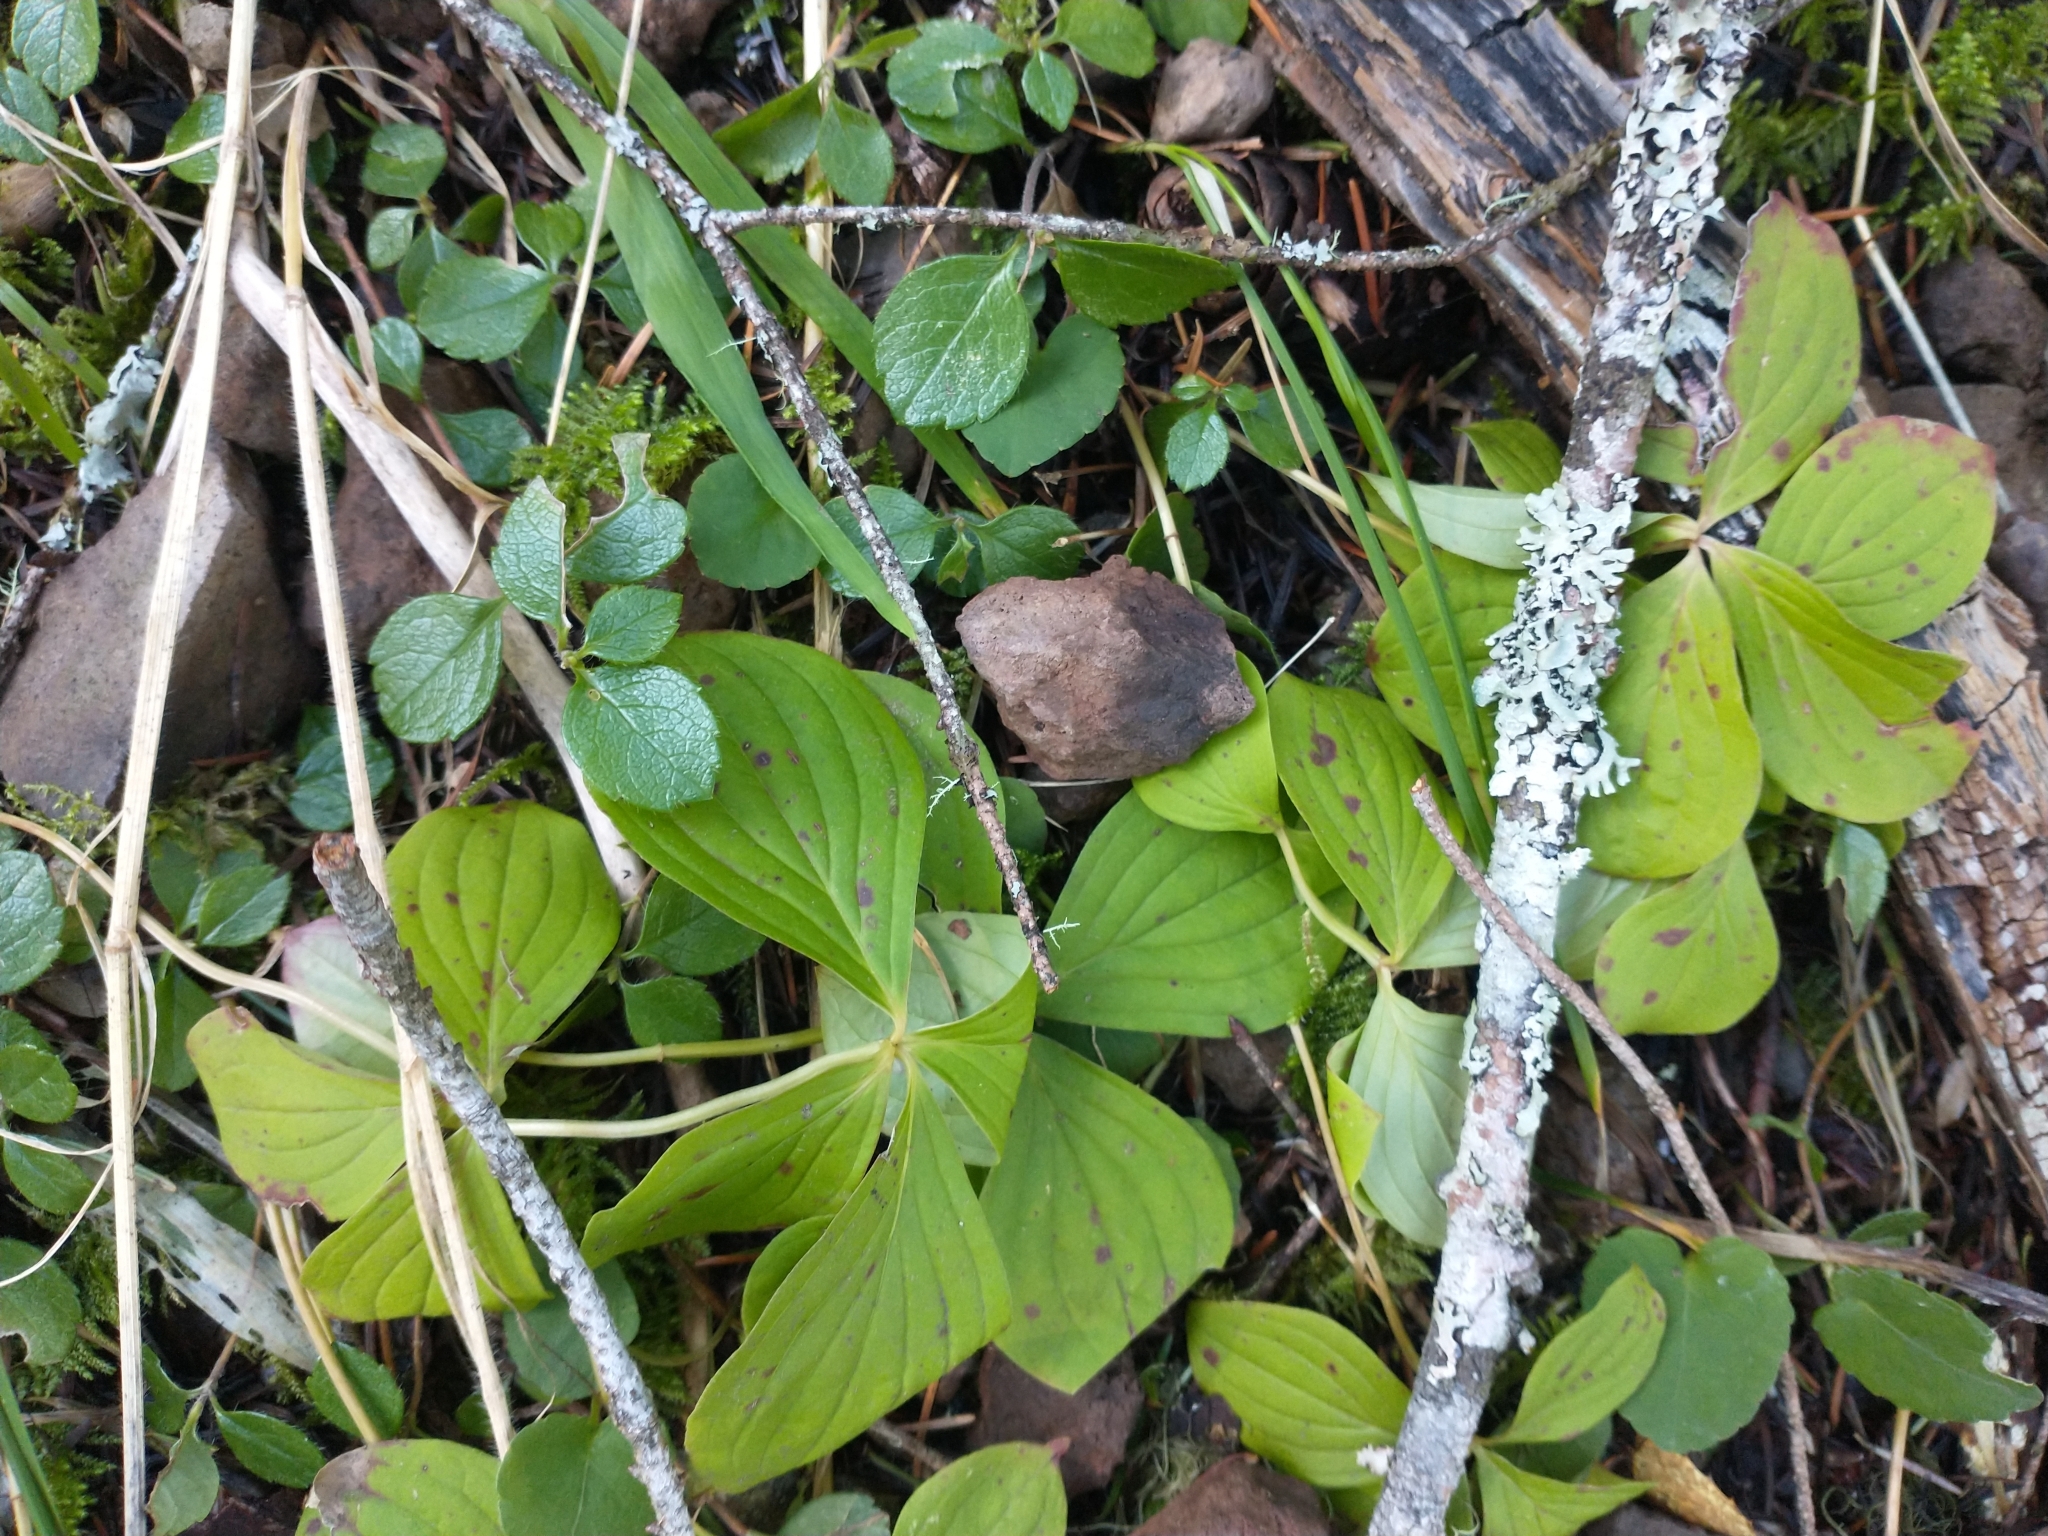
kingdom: Plantae
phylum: Tracheophyta
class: Magnoliopsida
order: Cornales
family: Cornaceae
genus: Cornus
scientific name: Cornus unalaschkensis
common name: Alaska bunchberry
